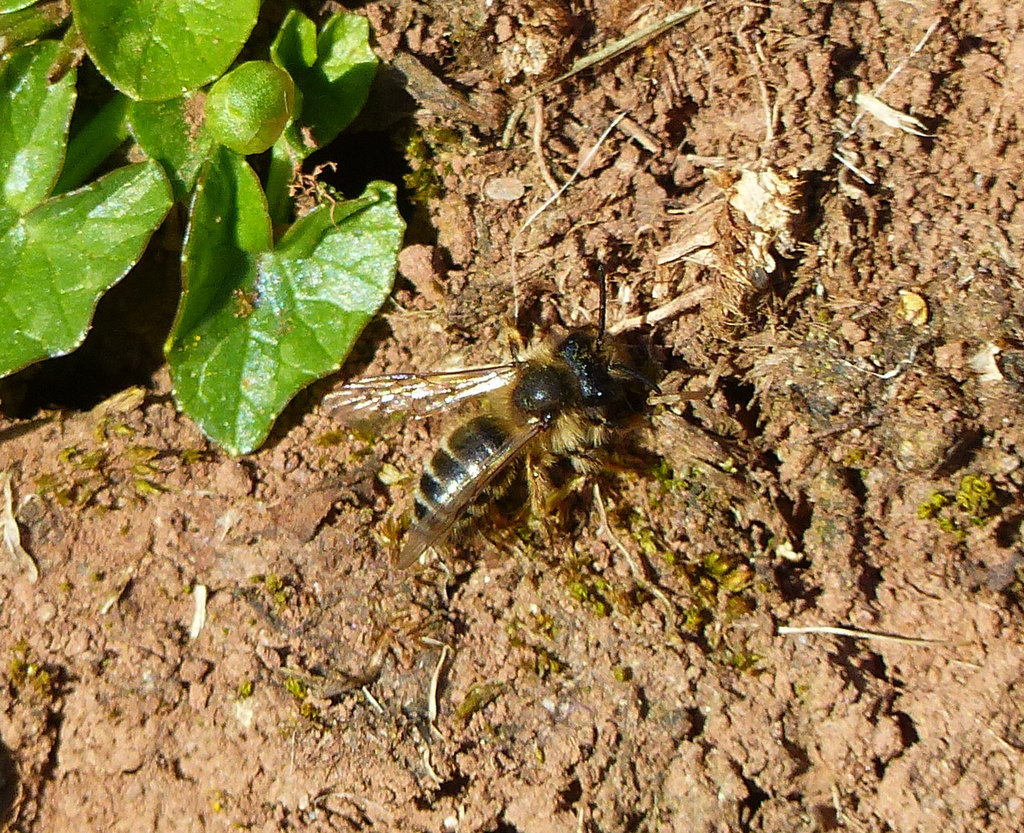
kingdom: Animalia
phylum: Arthropoda
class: Insecta
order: Hymenoptera
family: Andrenidae
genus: Andrena
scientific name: Andrena flavipes
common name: Yellow-legged mining bee
